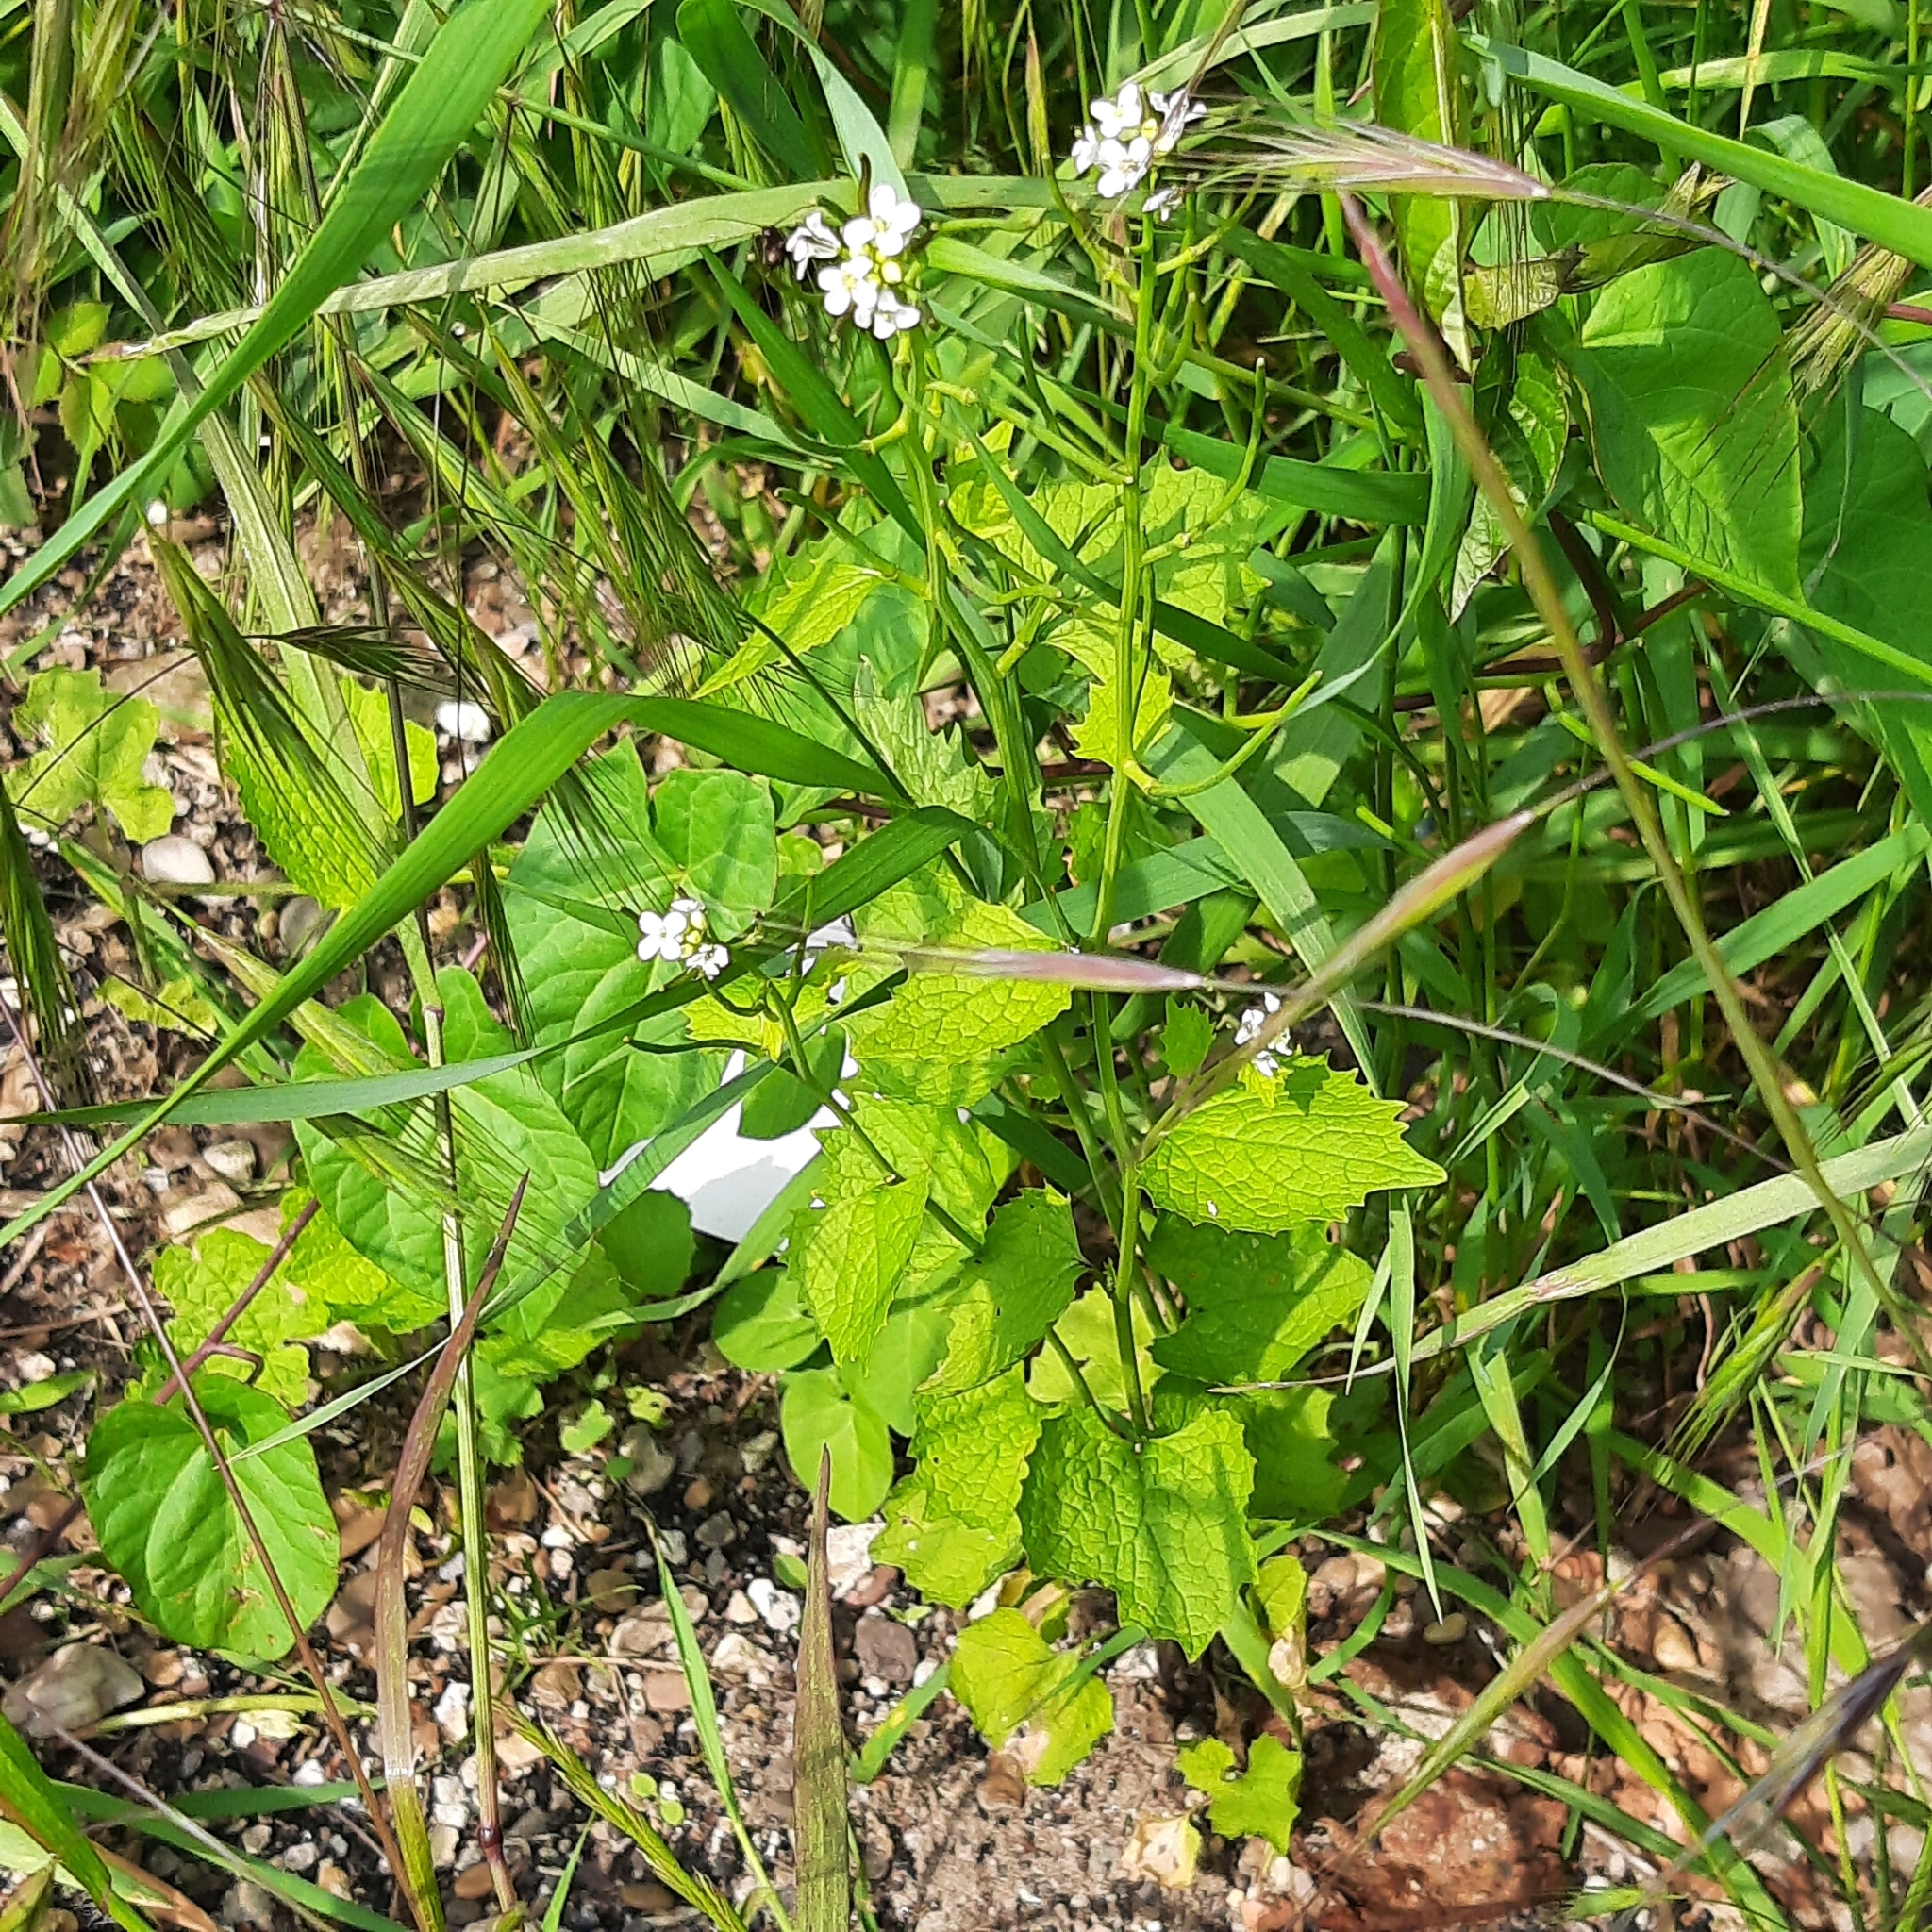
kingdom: Plantae
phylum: Tracheophyta
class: Magnoliopsida
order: Brassicales
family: Brassicaceae
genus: Alliaria
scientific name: Alliaria petiolata
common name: Garlic mustard
